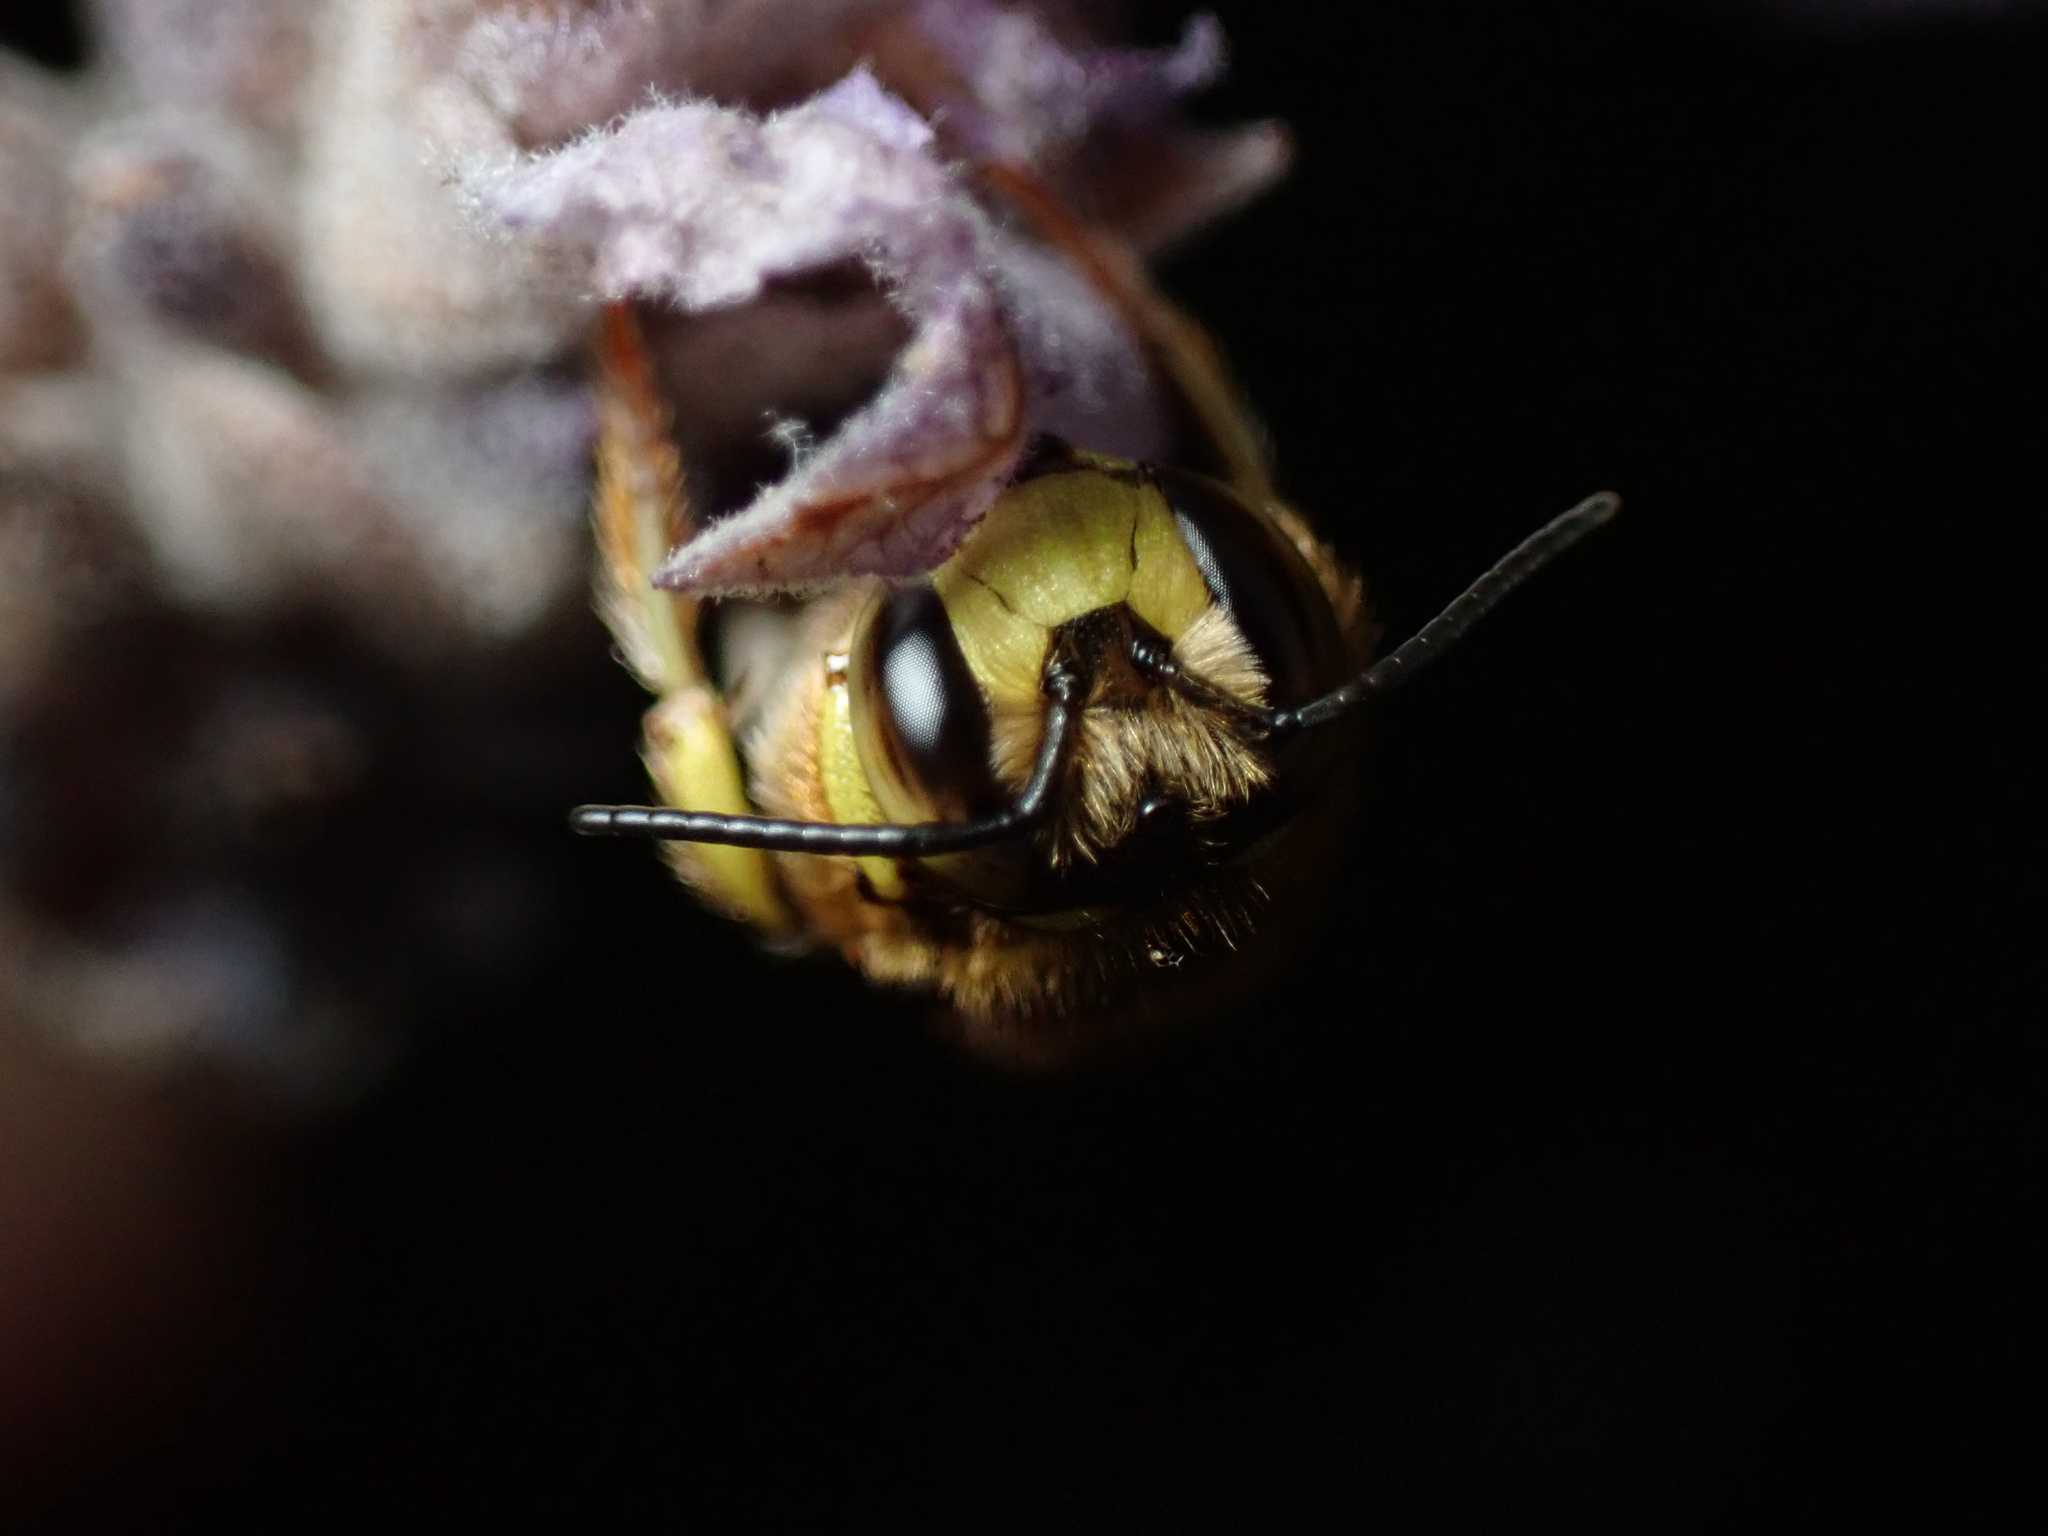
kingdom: Animalia
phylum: Arthropoda
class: Insecta
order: Hymenoptera
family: Megachilidae
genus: Anthidium
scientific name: Anthidium florentinum
